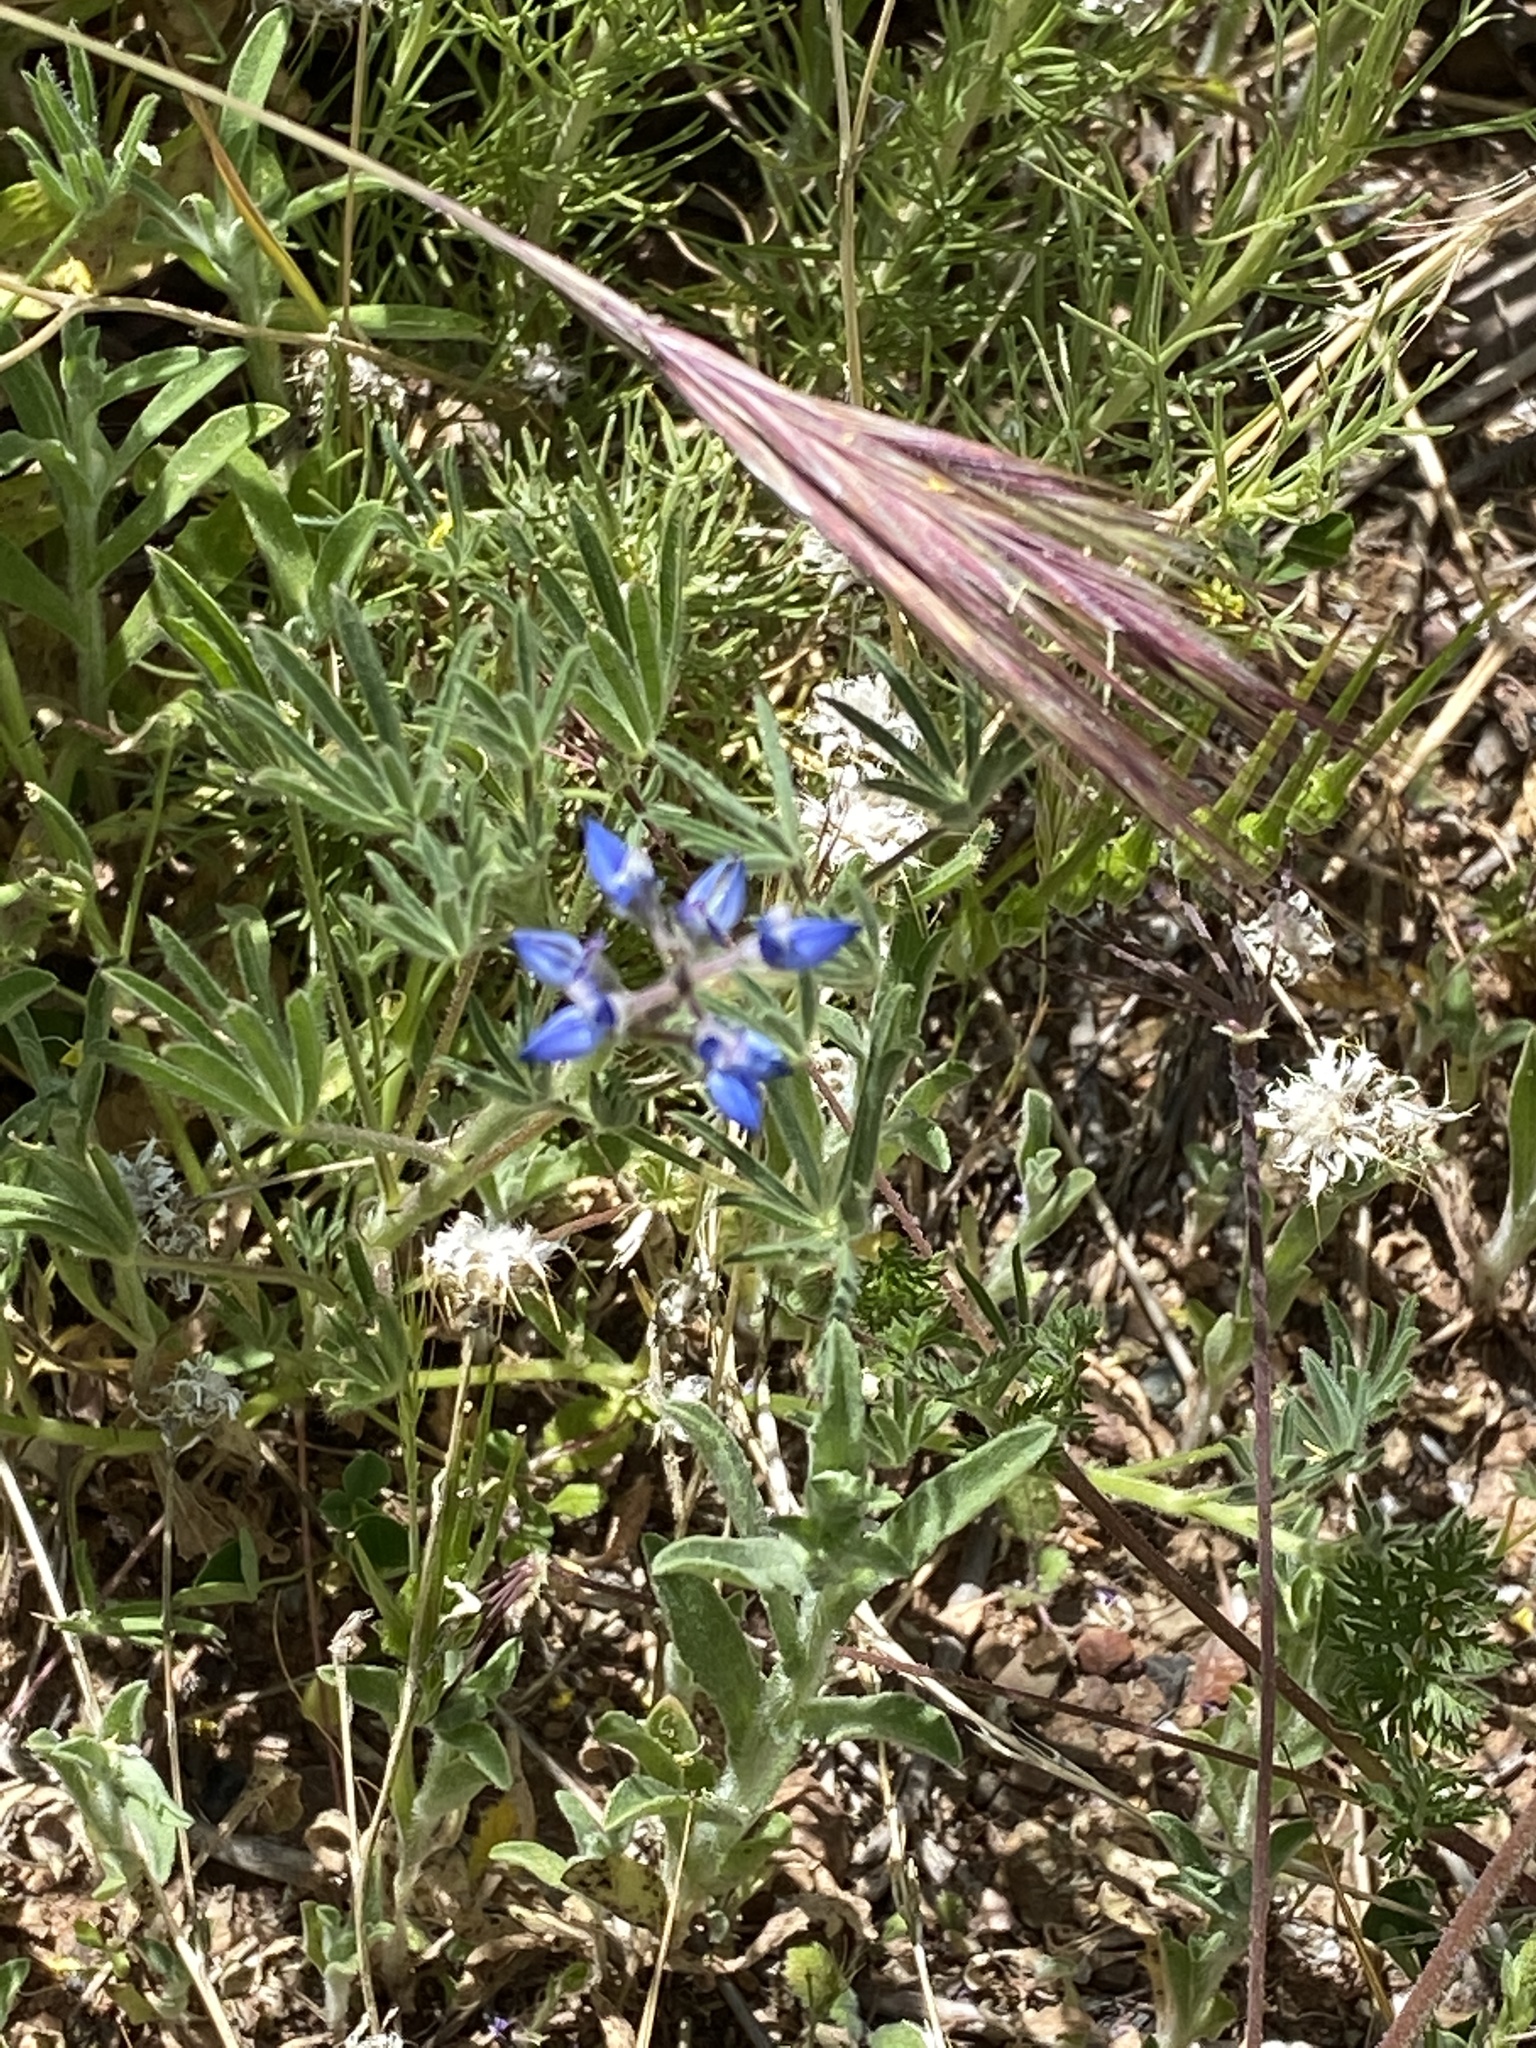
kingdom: Plantae
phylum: Tracheophyta
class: Magnoliopsida
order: Fabales
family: Fabaceae
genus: Lupinus
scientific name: Lupinus bicolor
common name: Miniature lupine
